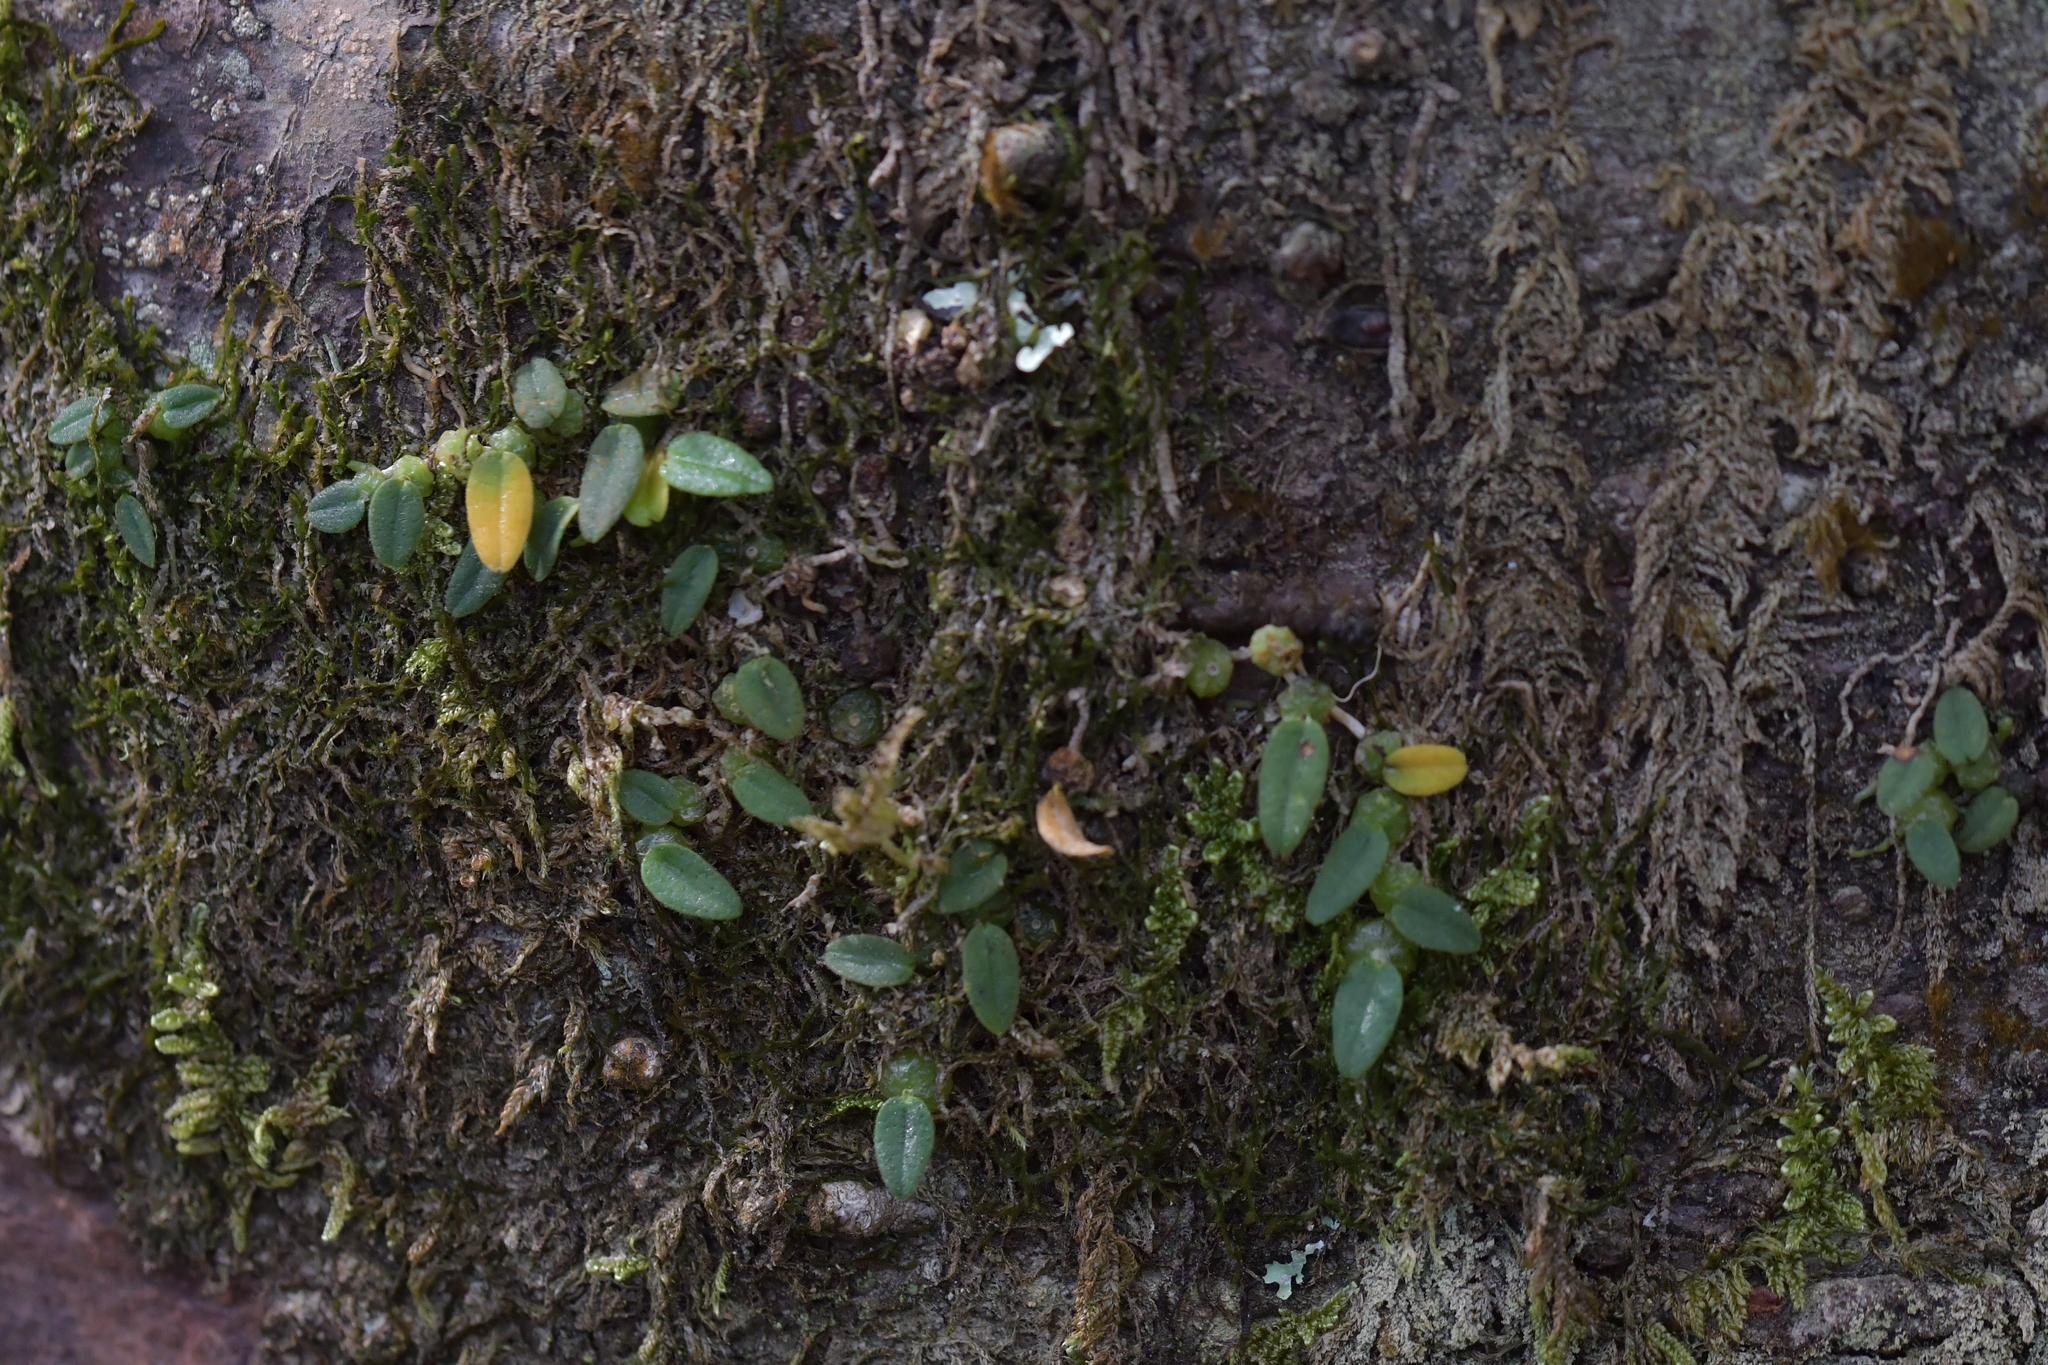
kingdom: Plantae
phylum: Tracheophyta
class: Liliopsida
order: Asparagales
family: Orchidaceae
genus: Bulbophyllum
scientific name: Bulbophyllum pygmaeum
